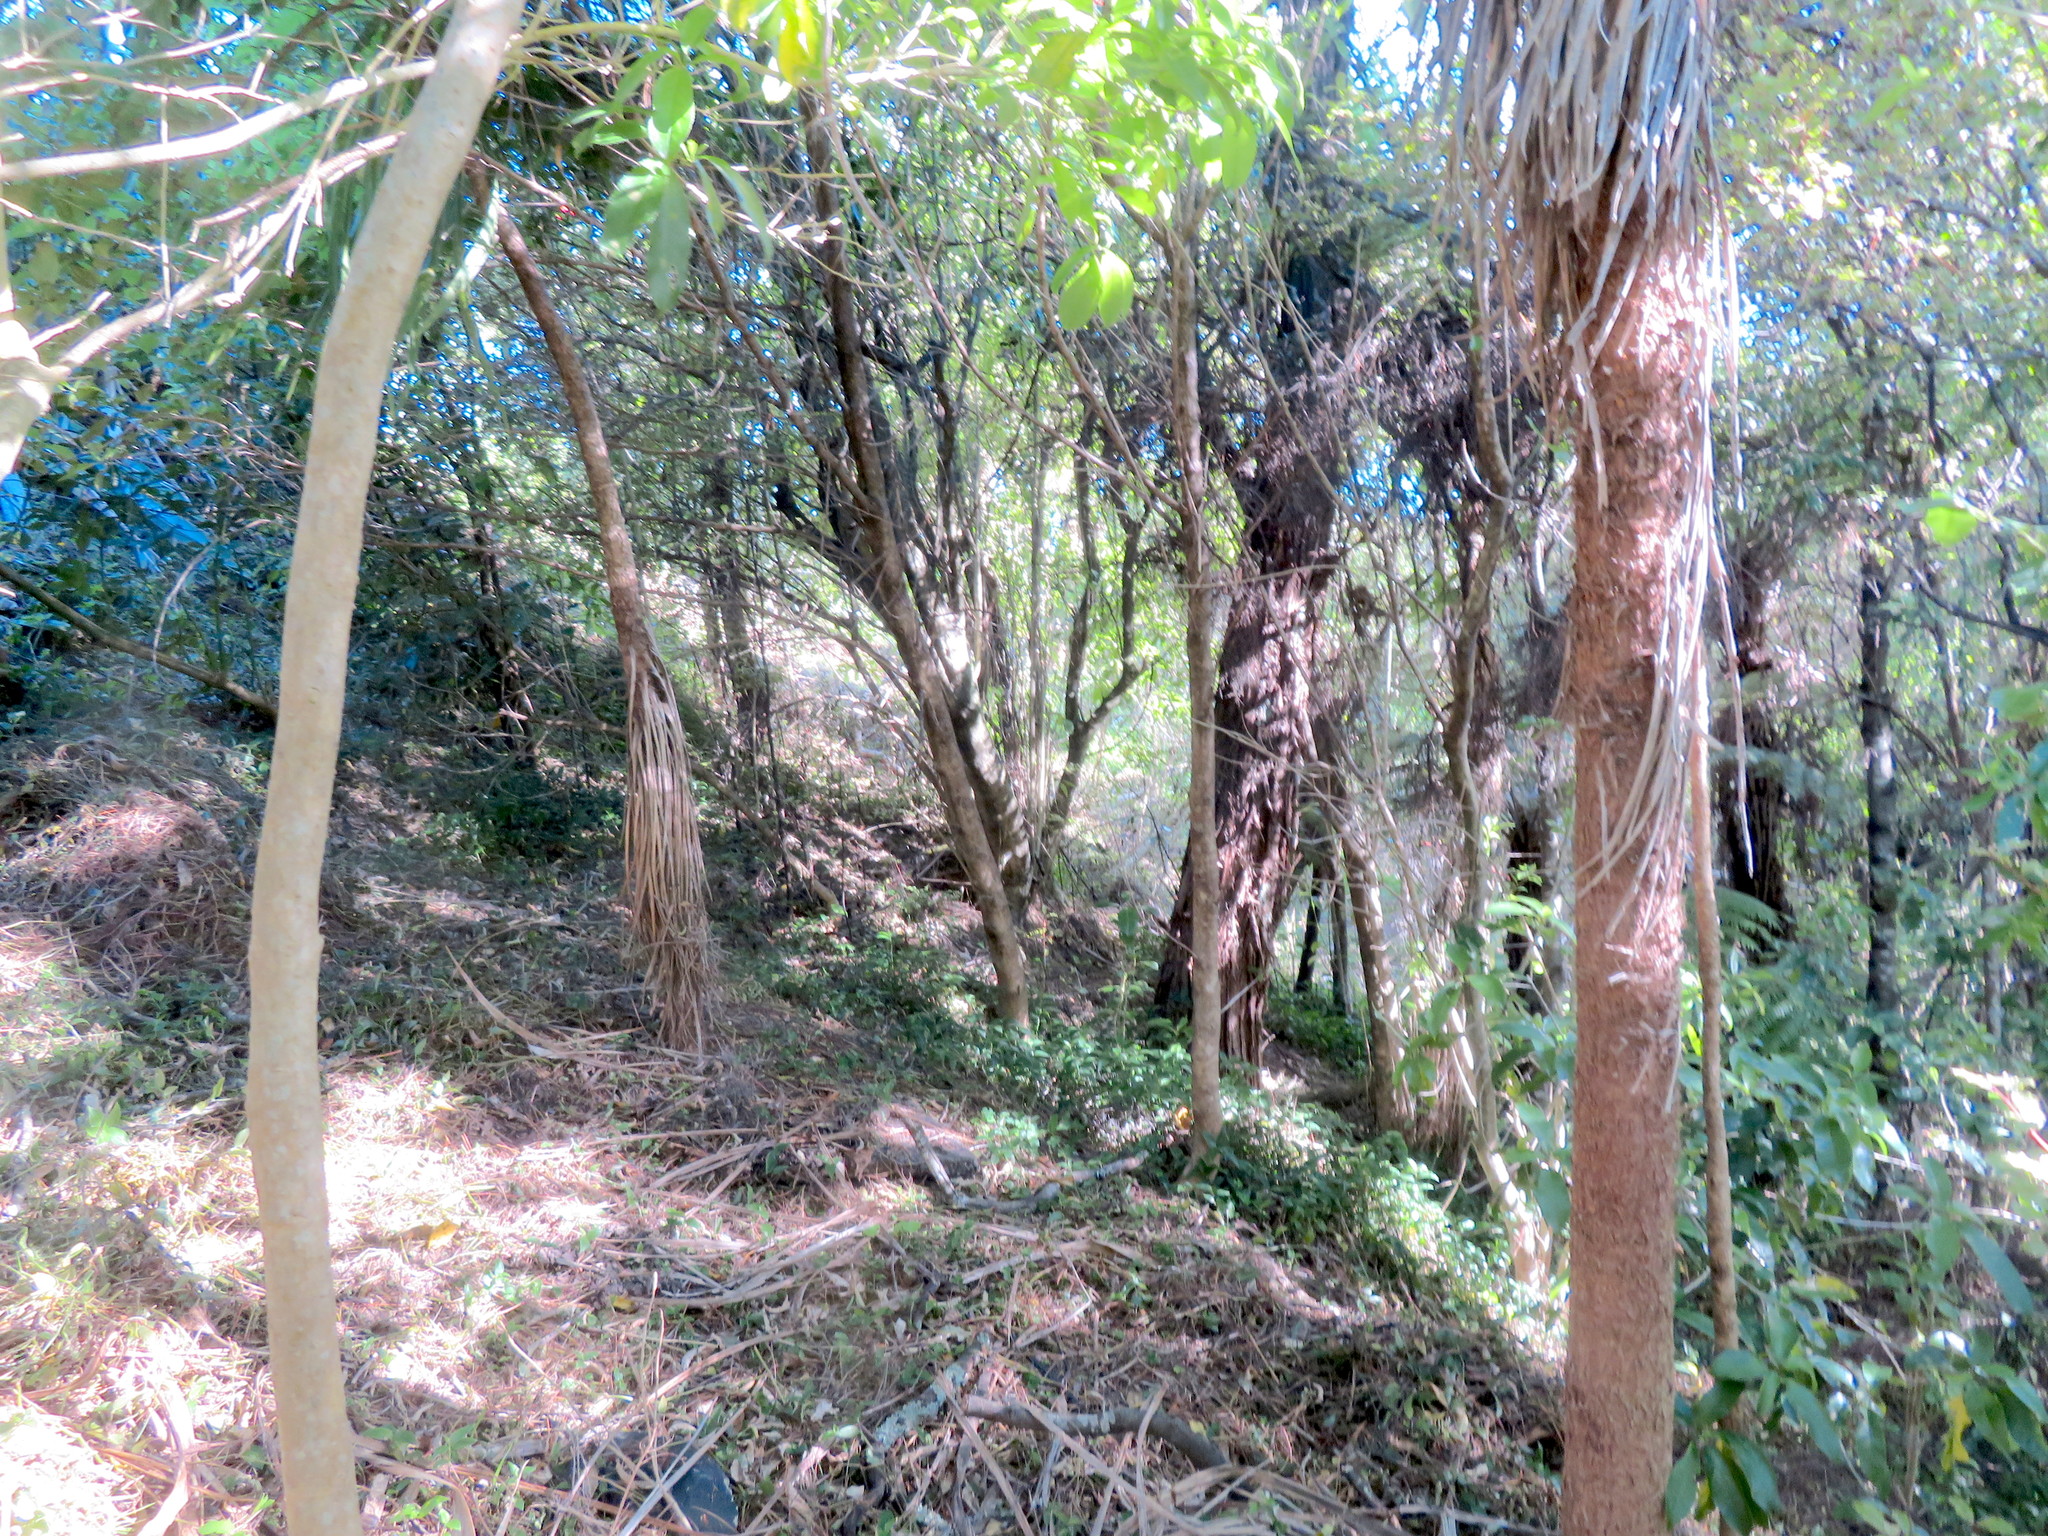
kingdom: Plantae
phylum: Tracheophyta
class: Liliopsida
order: Commelinales
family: Commelinaceae
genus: Tradescantia
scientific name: Tradescantia fluminensis
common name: Wandering-jew
